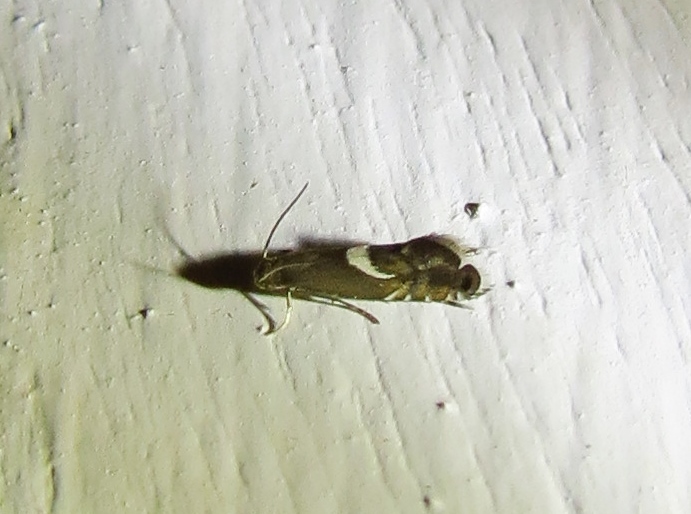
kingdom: Animalia
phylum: Arthropoda
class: Insecta
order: Lepidoptera
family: Glyphipterigidae
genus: Glyphipterix
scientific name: Glyphipterix Diploschizia impigritella
